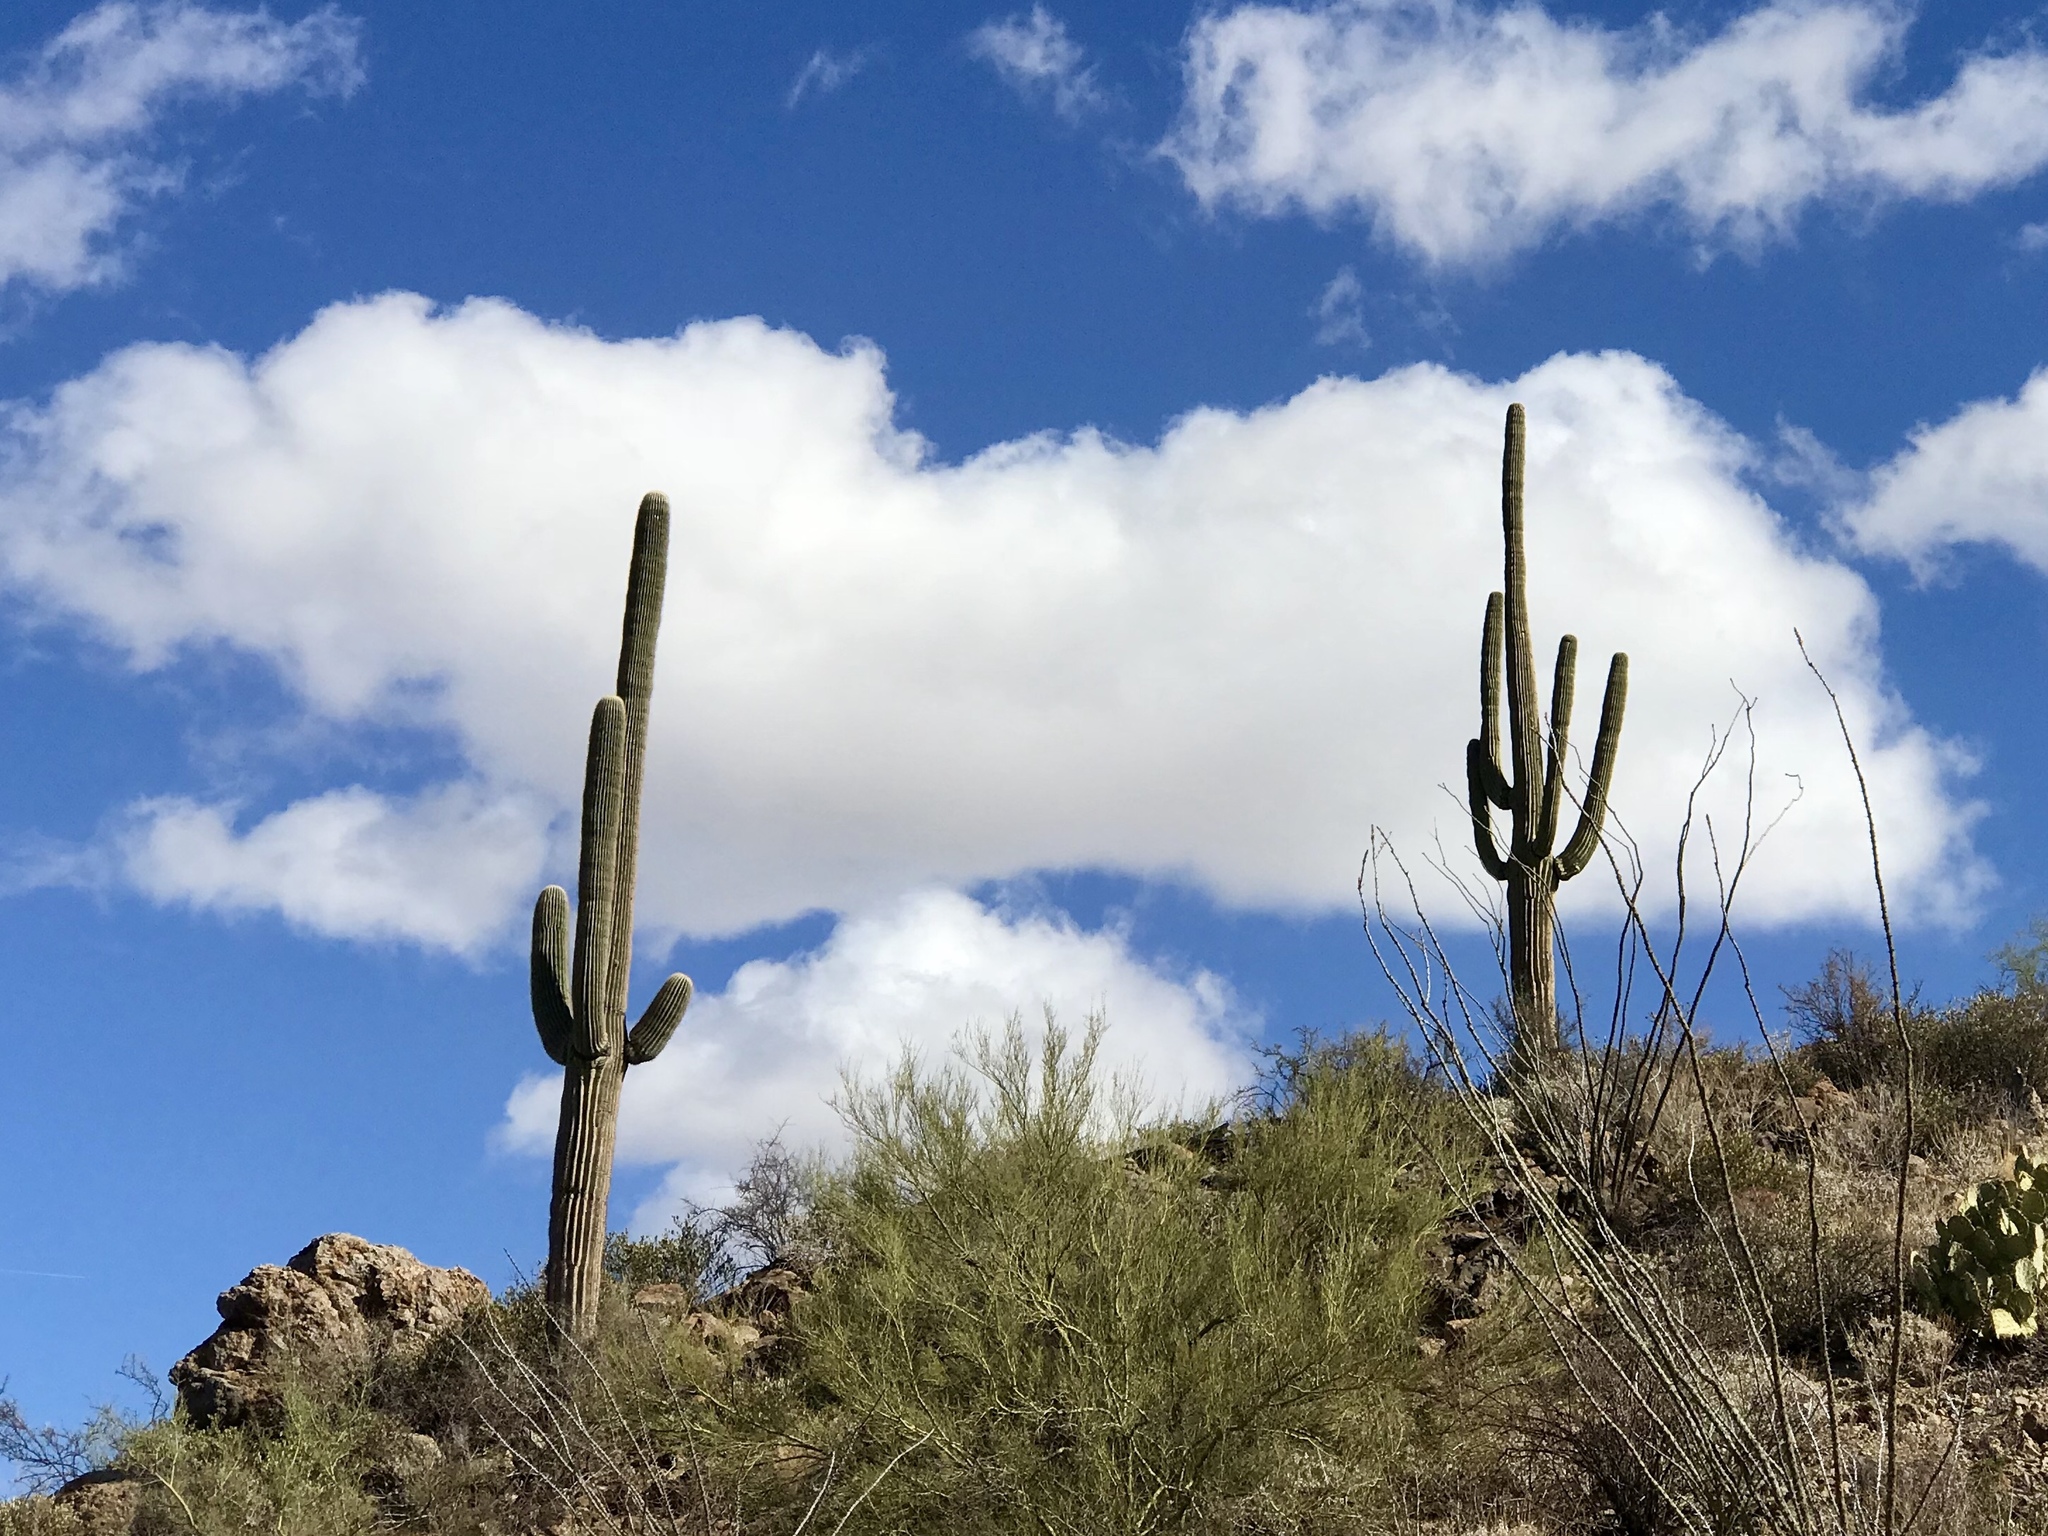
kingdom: Plantae
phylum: Tracheophyta
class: Magnoliopsida
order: Caryophyllales
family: Cactaceae
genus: Carnegiea
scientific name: Carnegiea gigantea
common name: Saguaro
